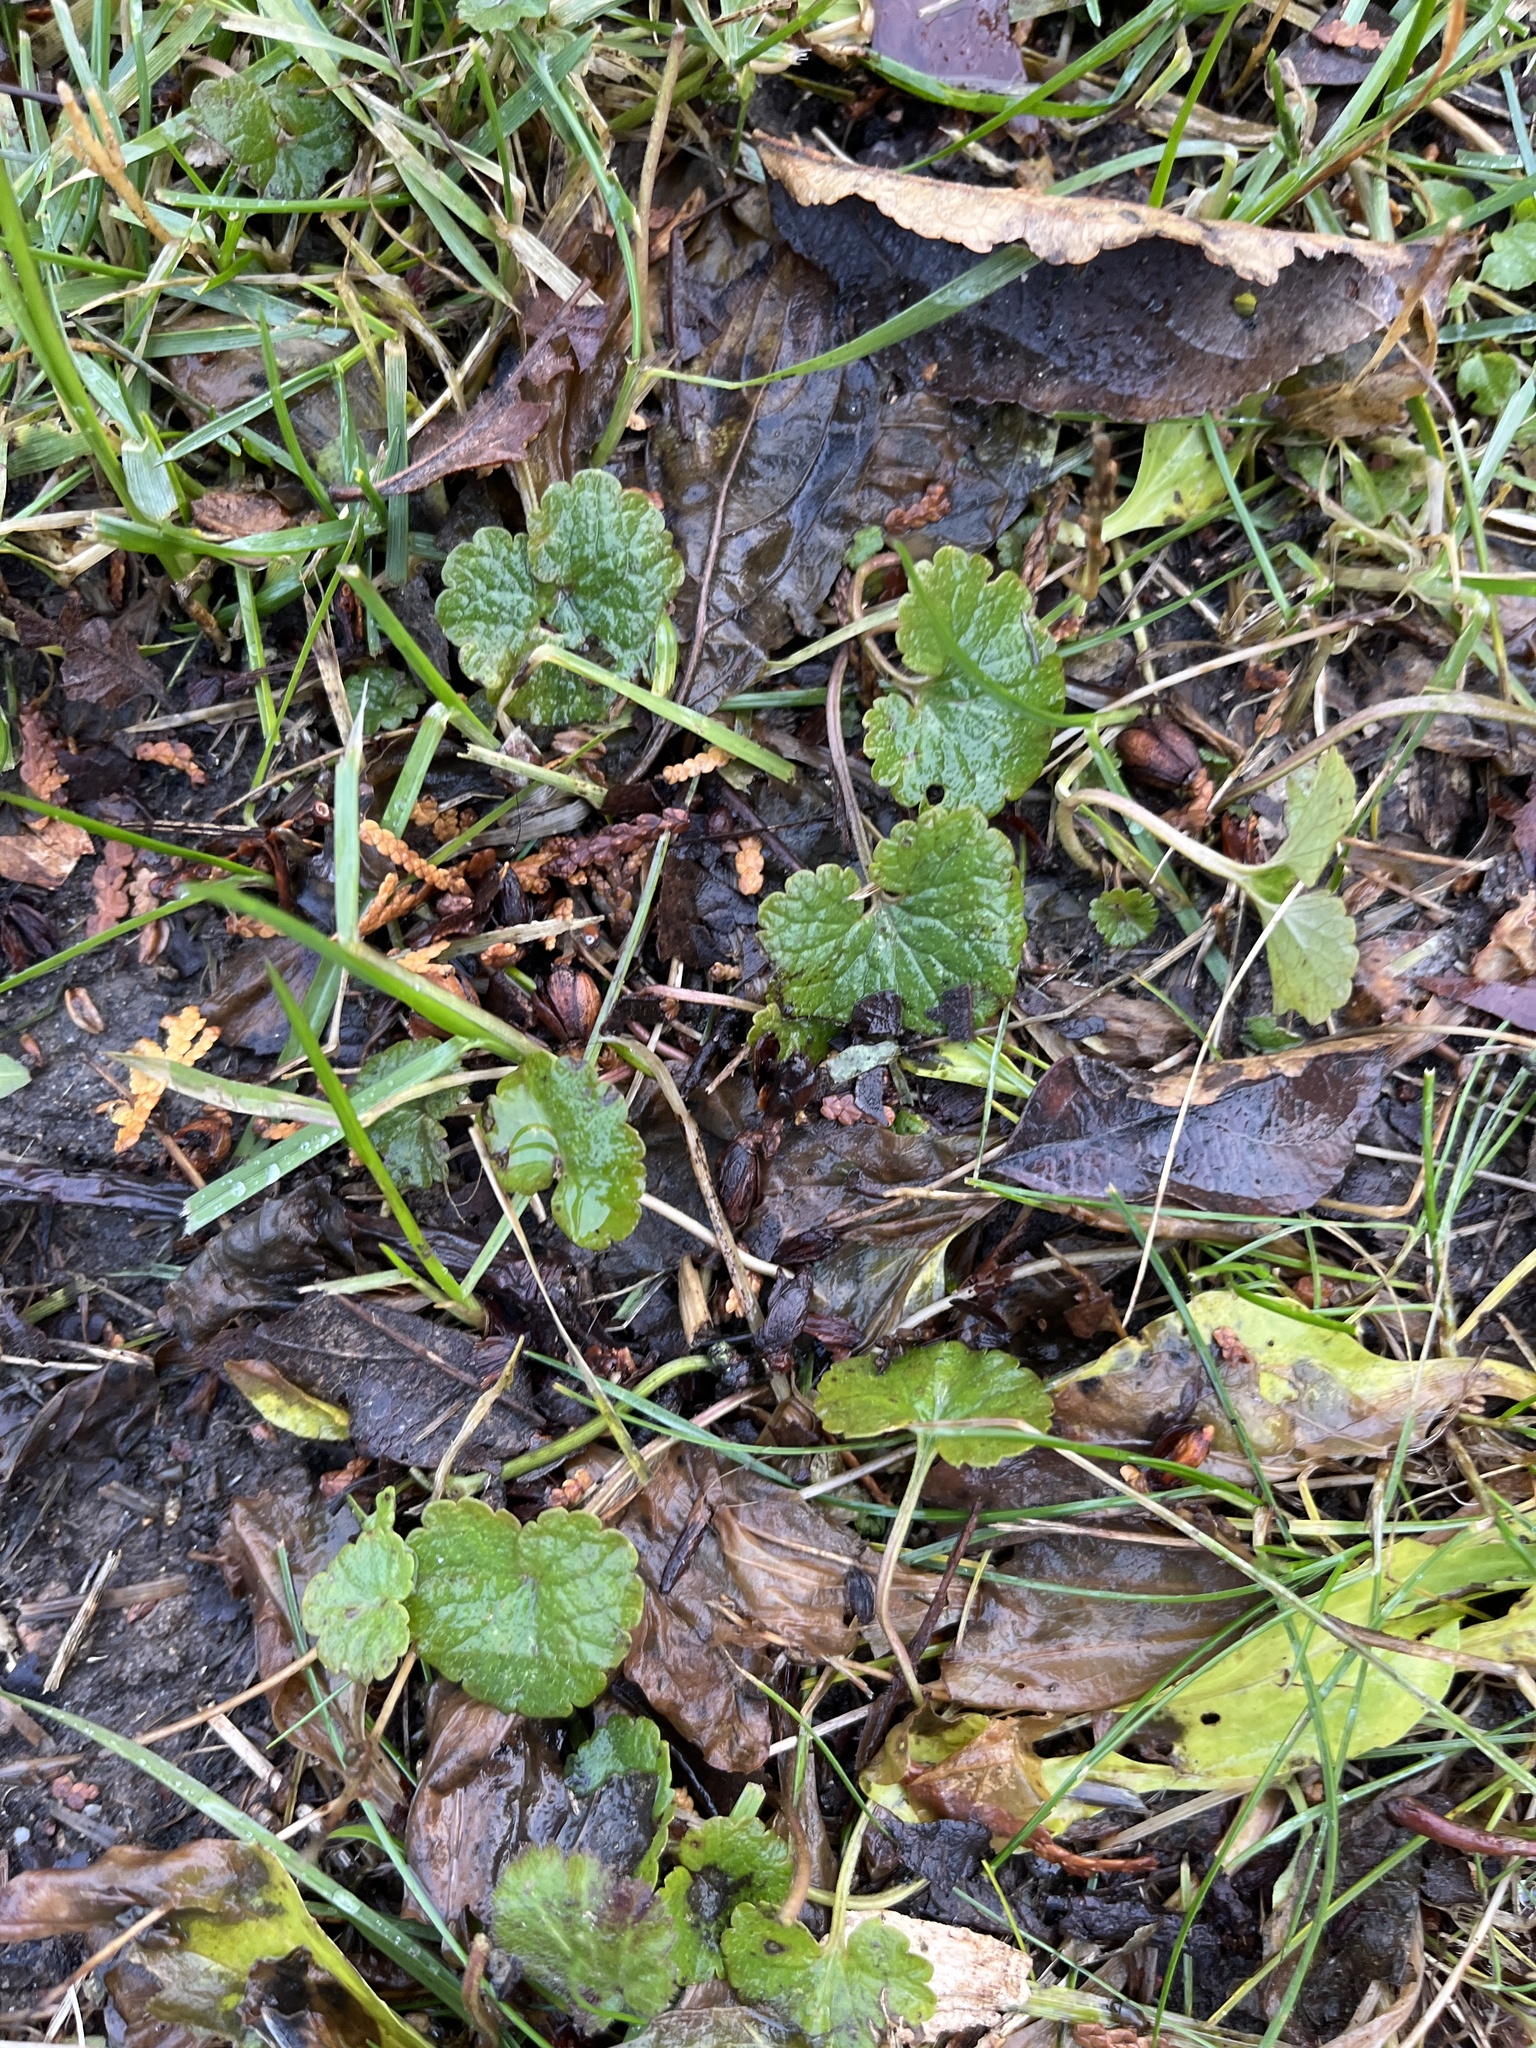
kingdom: Plantae
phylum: Tracheophyta
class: Magnoliopsida
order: Lamiales
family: Lamiaceae
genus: Glechoma
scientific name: Glechoma hederacea
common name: Ground ivy
